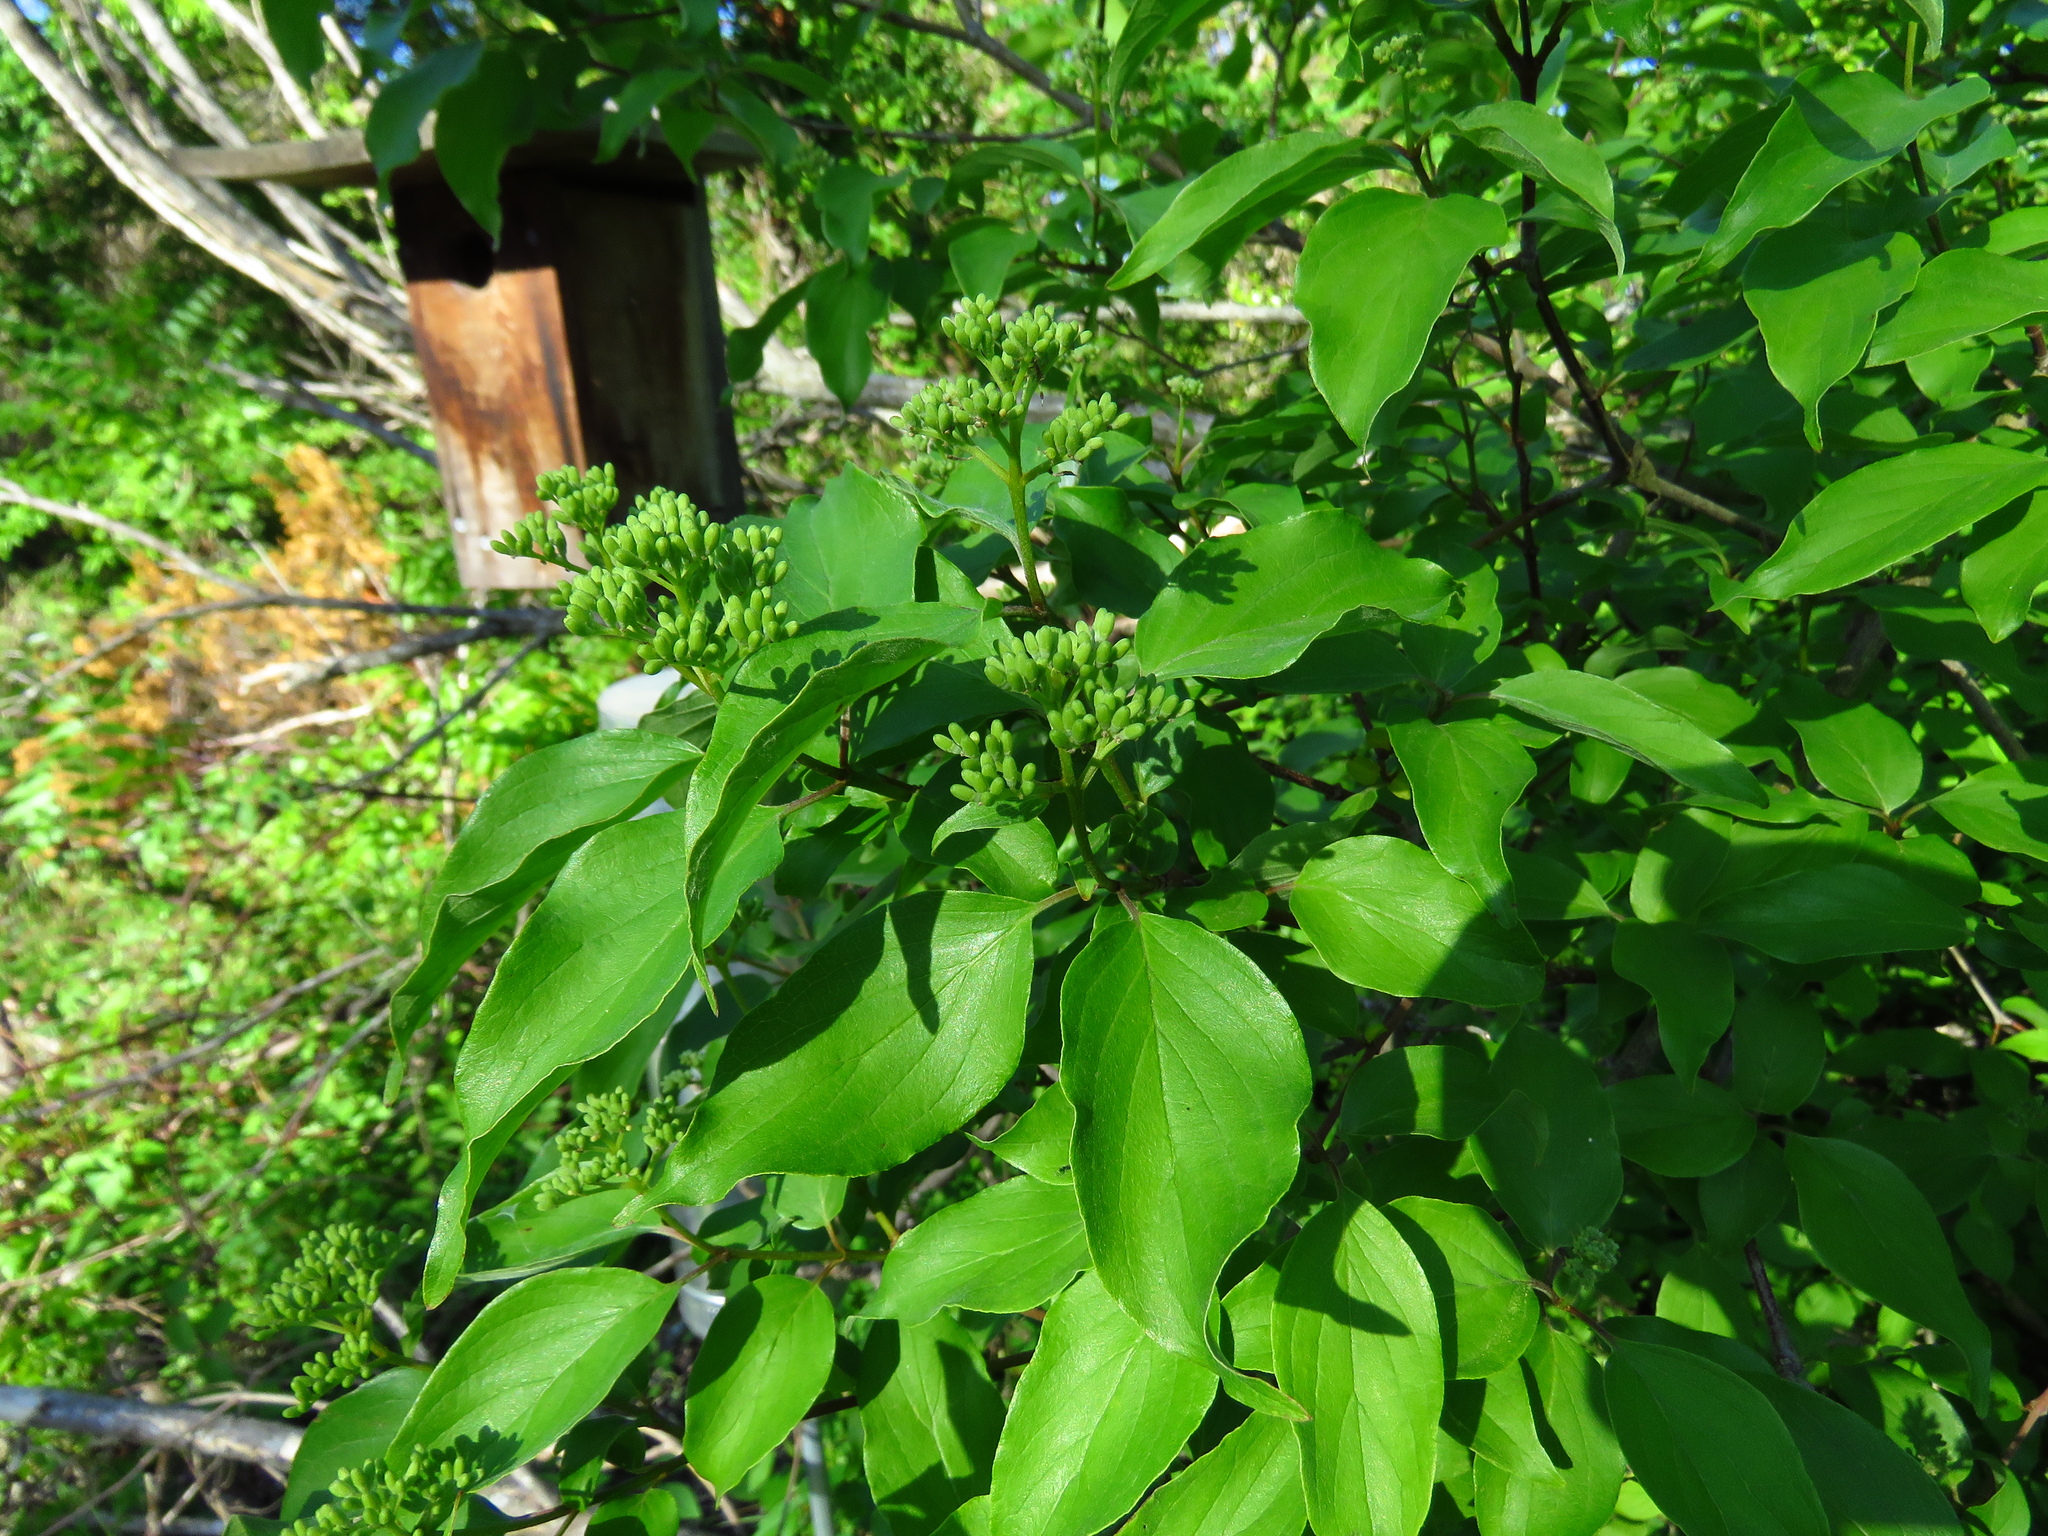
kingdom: Plantae
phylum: Tracheophyta
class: Magnoliopsida
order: Cornales
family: Cornaceae
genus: Cornus
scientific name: Cornus drummondii
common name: Rough-leaf dogwood
